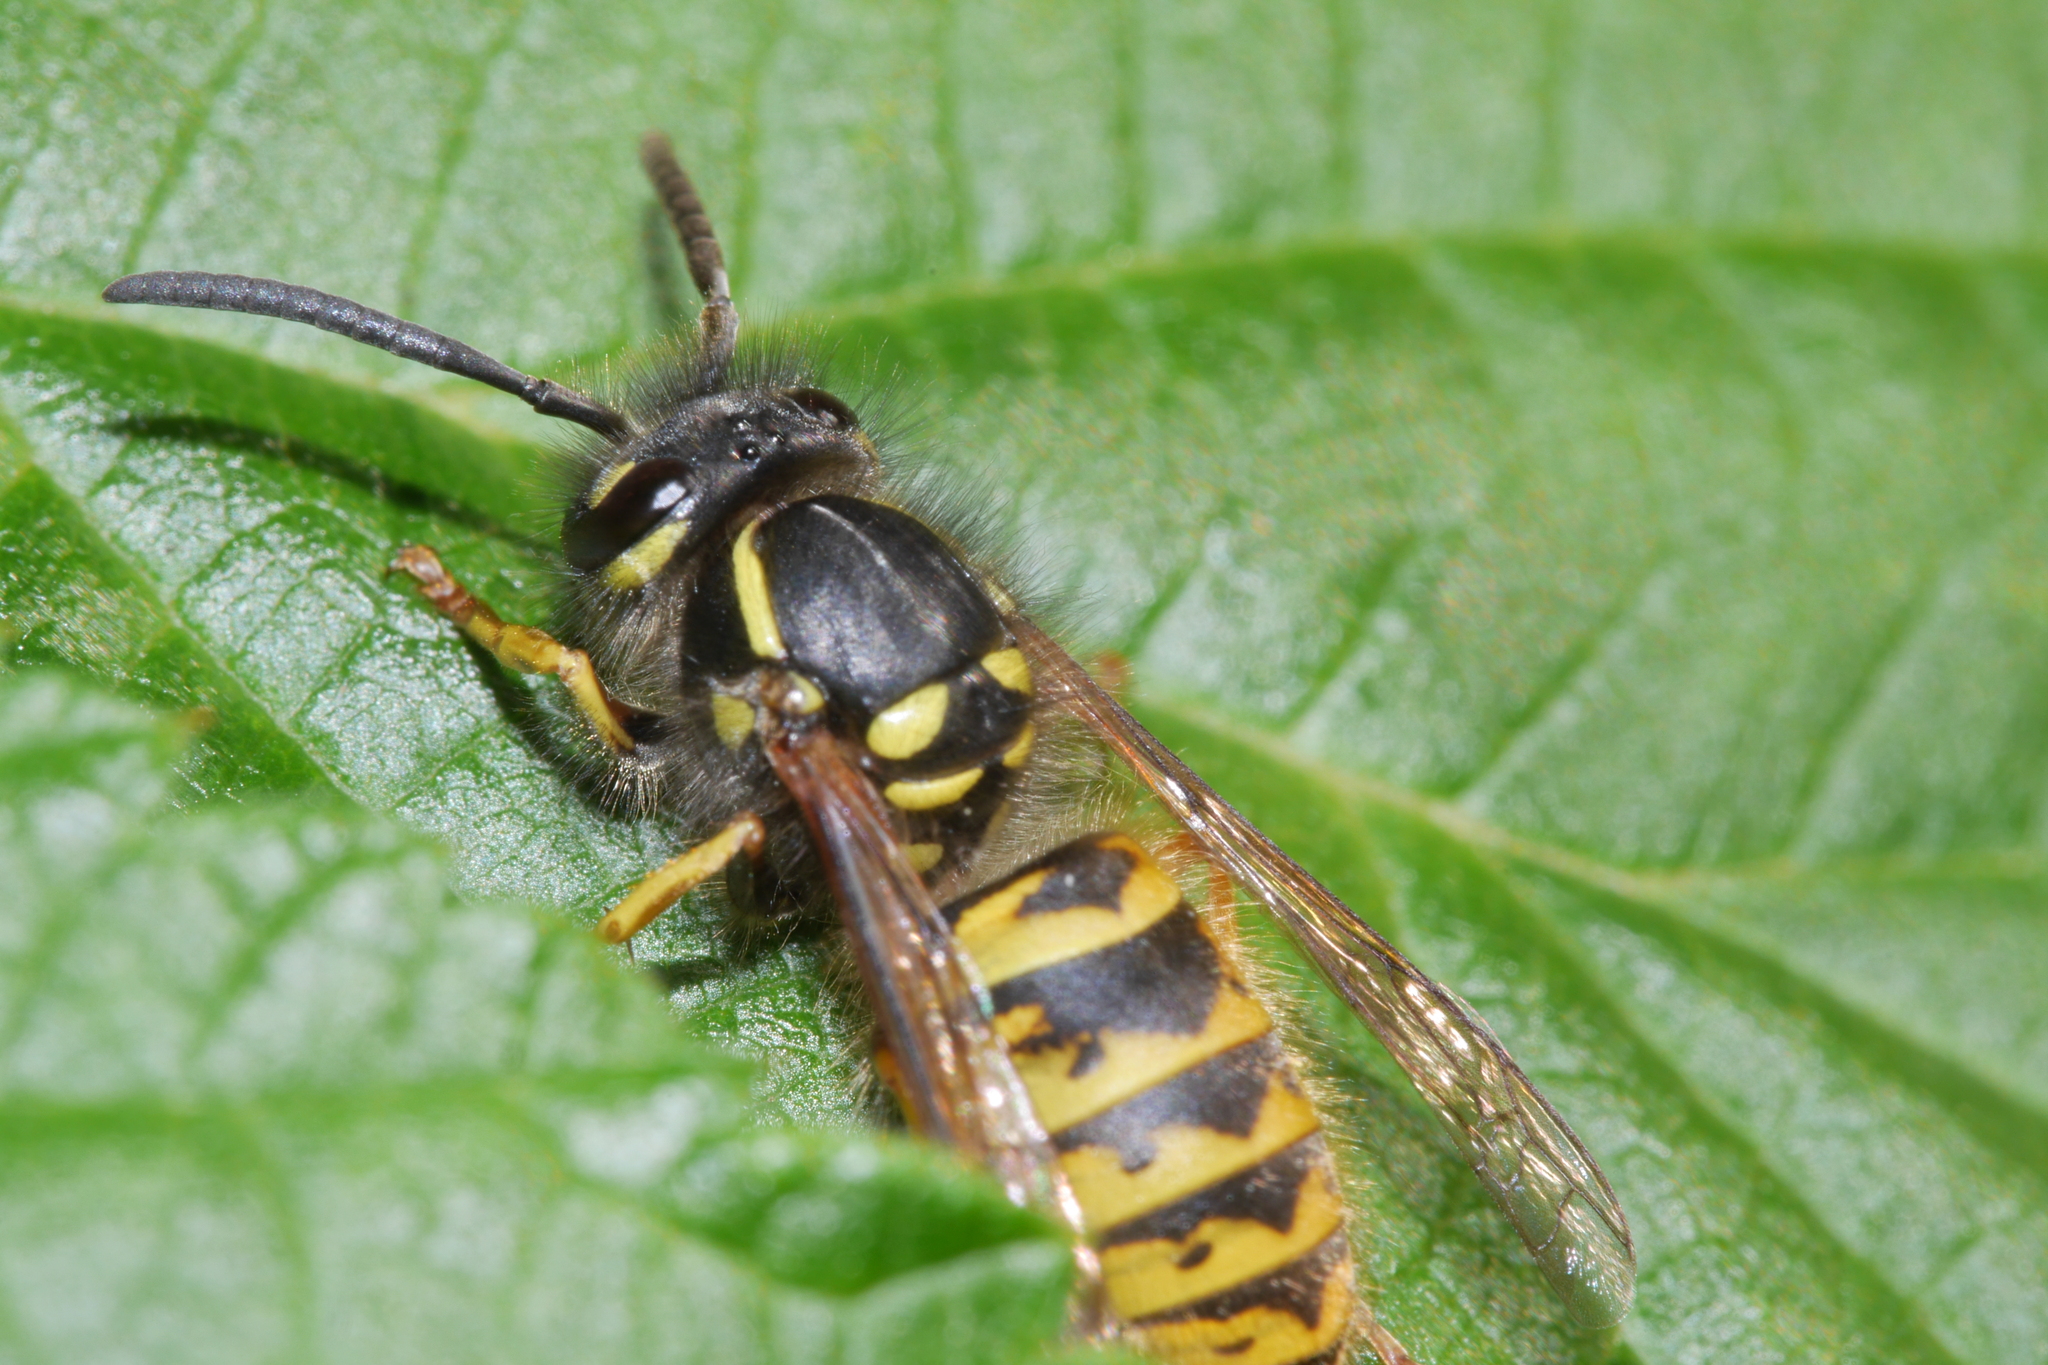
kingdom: Animalia
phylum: Arthropoda
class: Insecta
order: Hymenoptera
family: Vespidae
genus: Vespula
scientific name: Vespula vulgaris
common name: Common wasp
